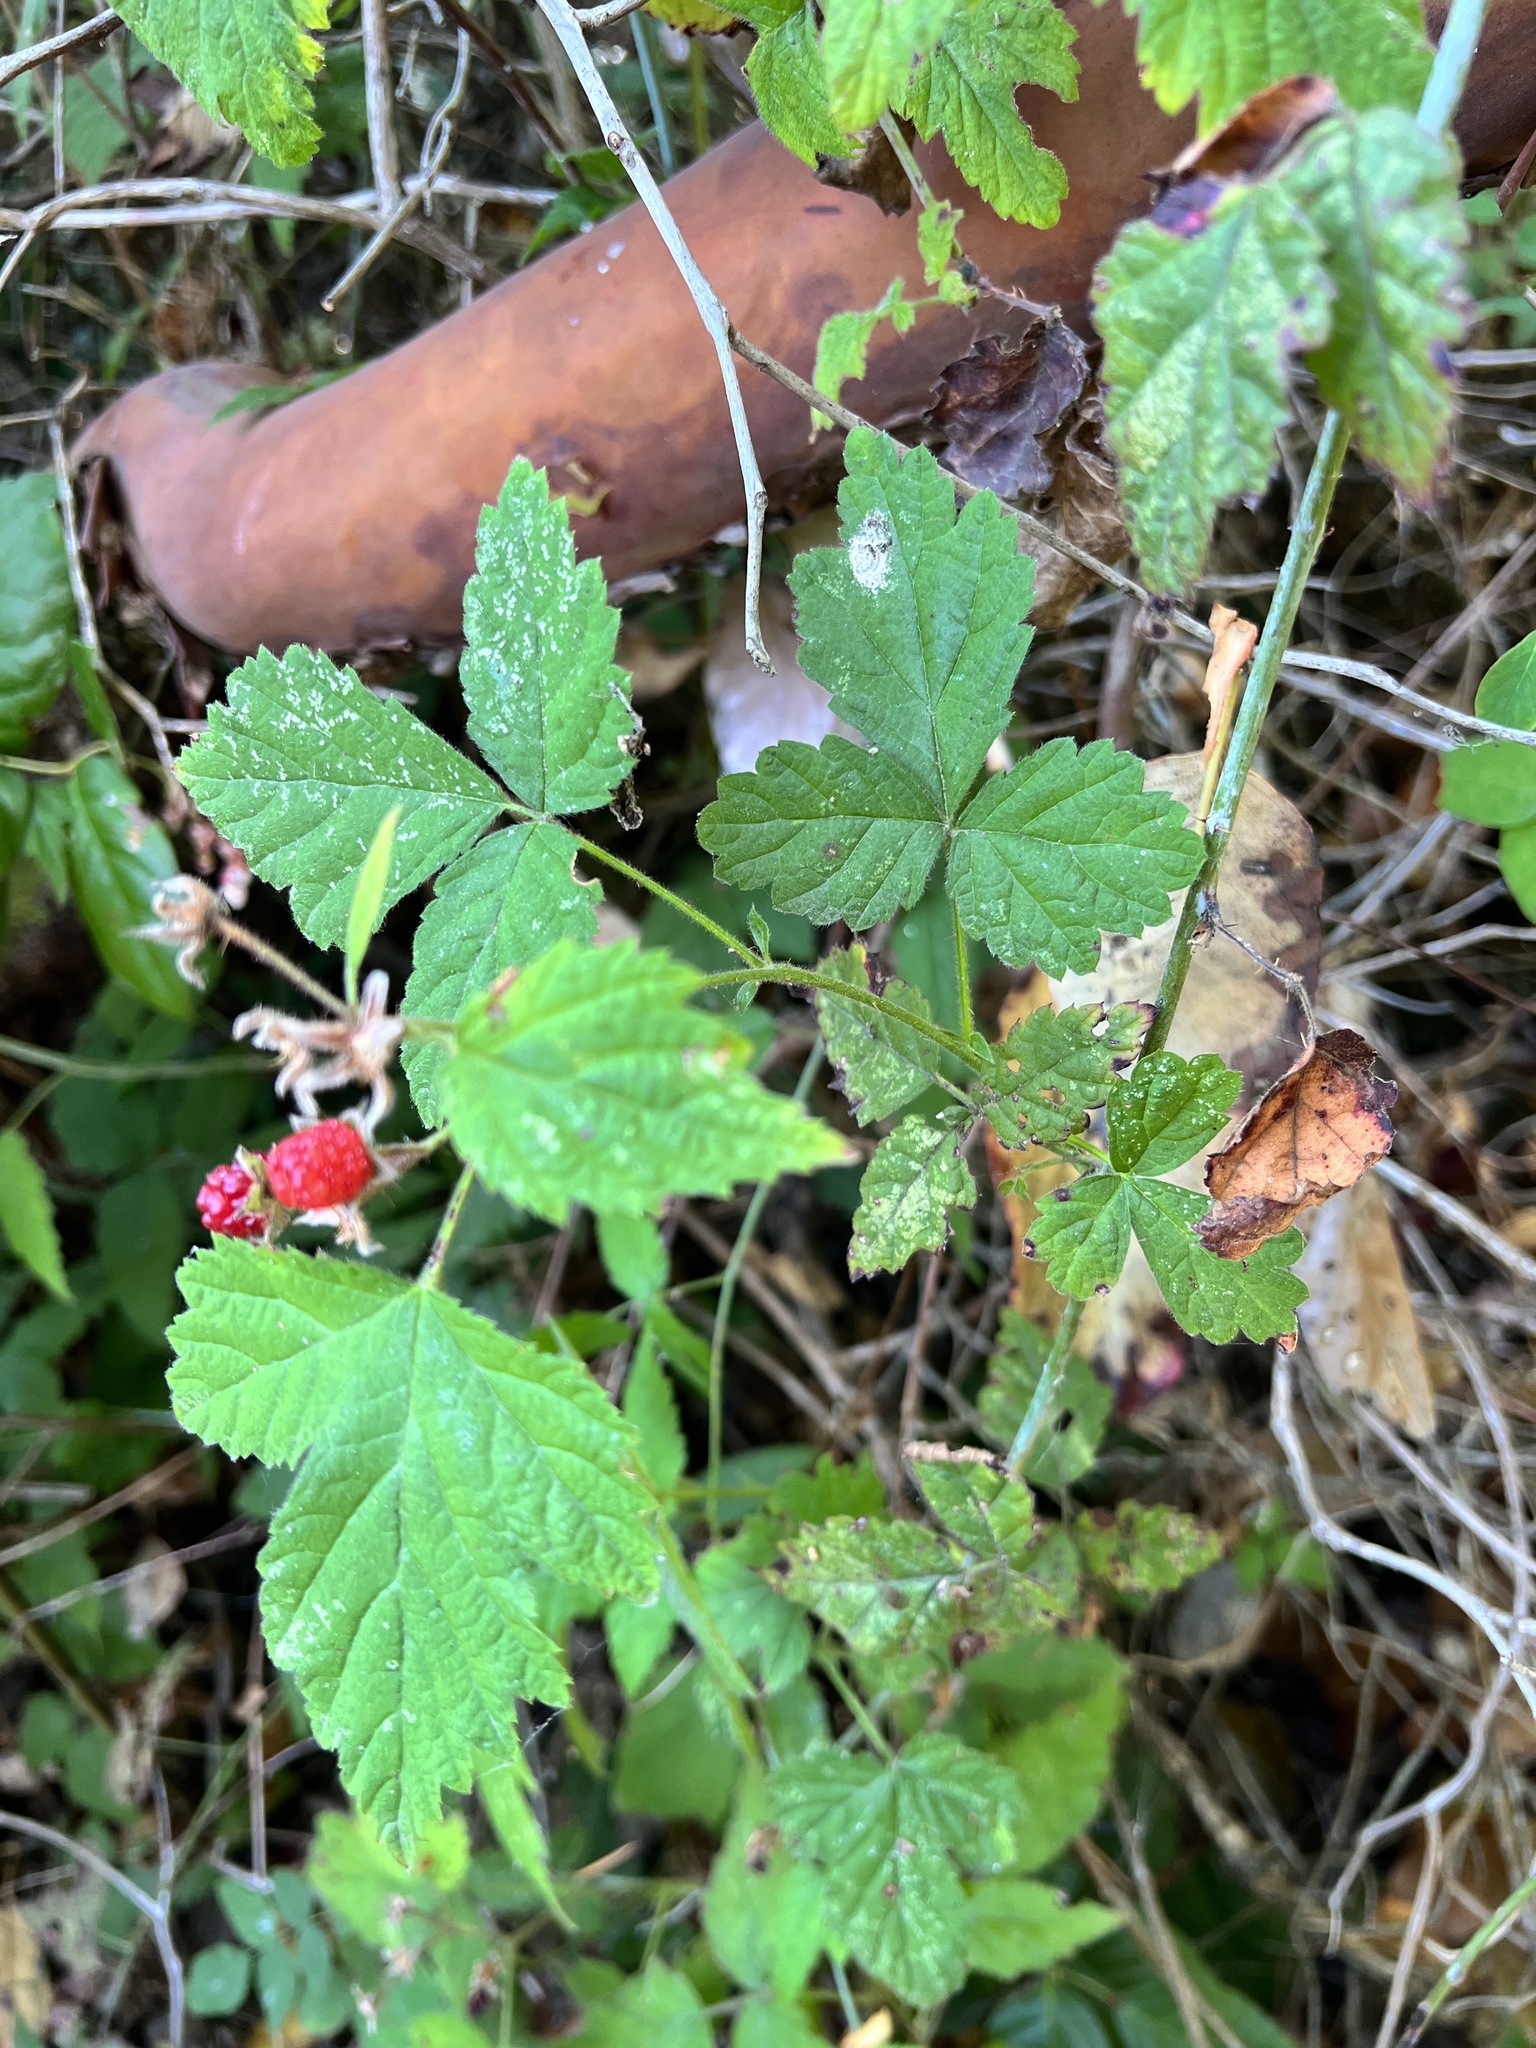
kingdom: Plantae
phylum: Tracheophyta
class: Magnoliopsida
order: Rosales
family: Rosaceae
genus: Rubus
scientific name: Rubus ursinus
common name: Pacific blackberry
